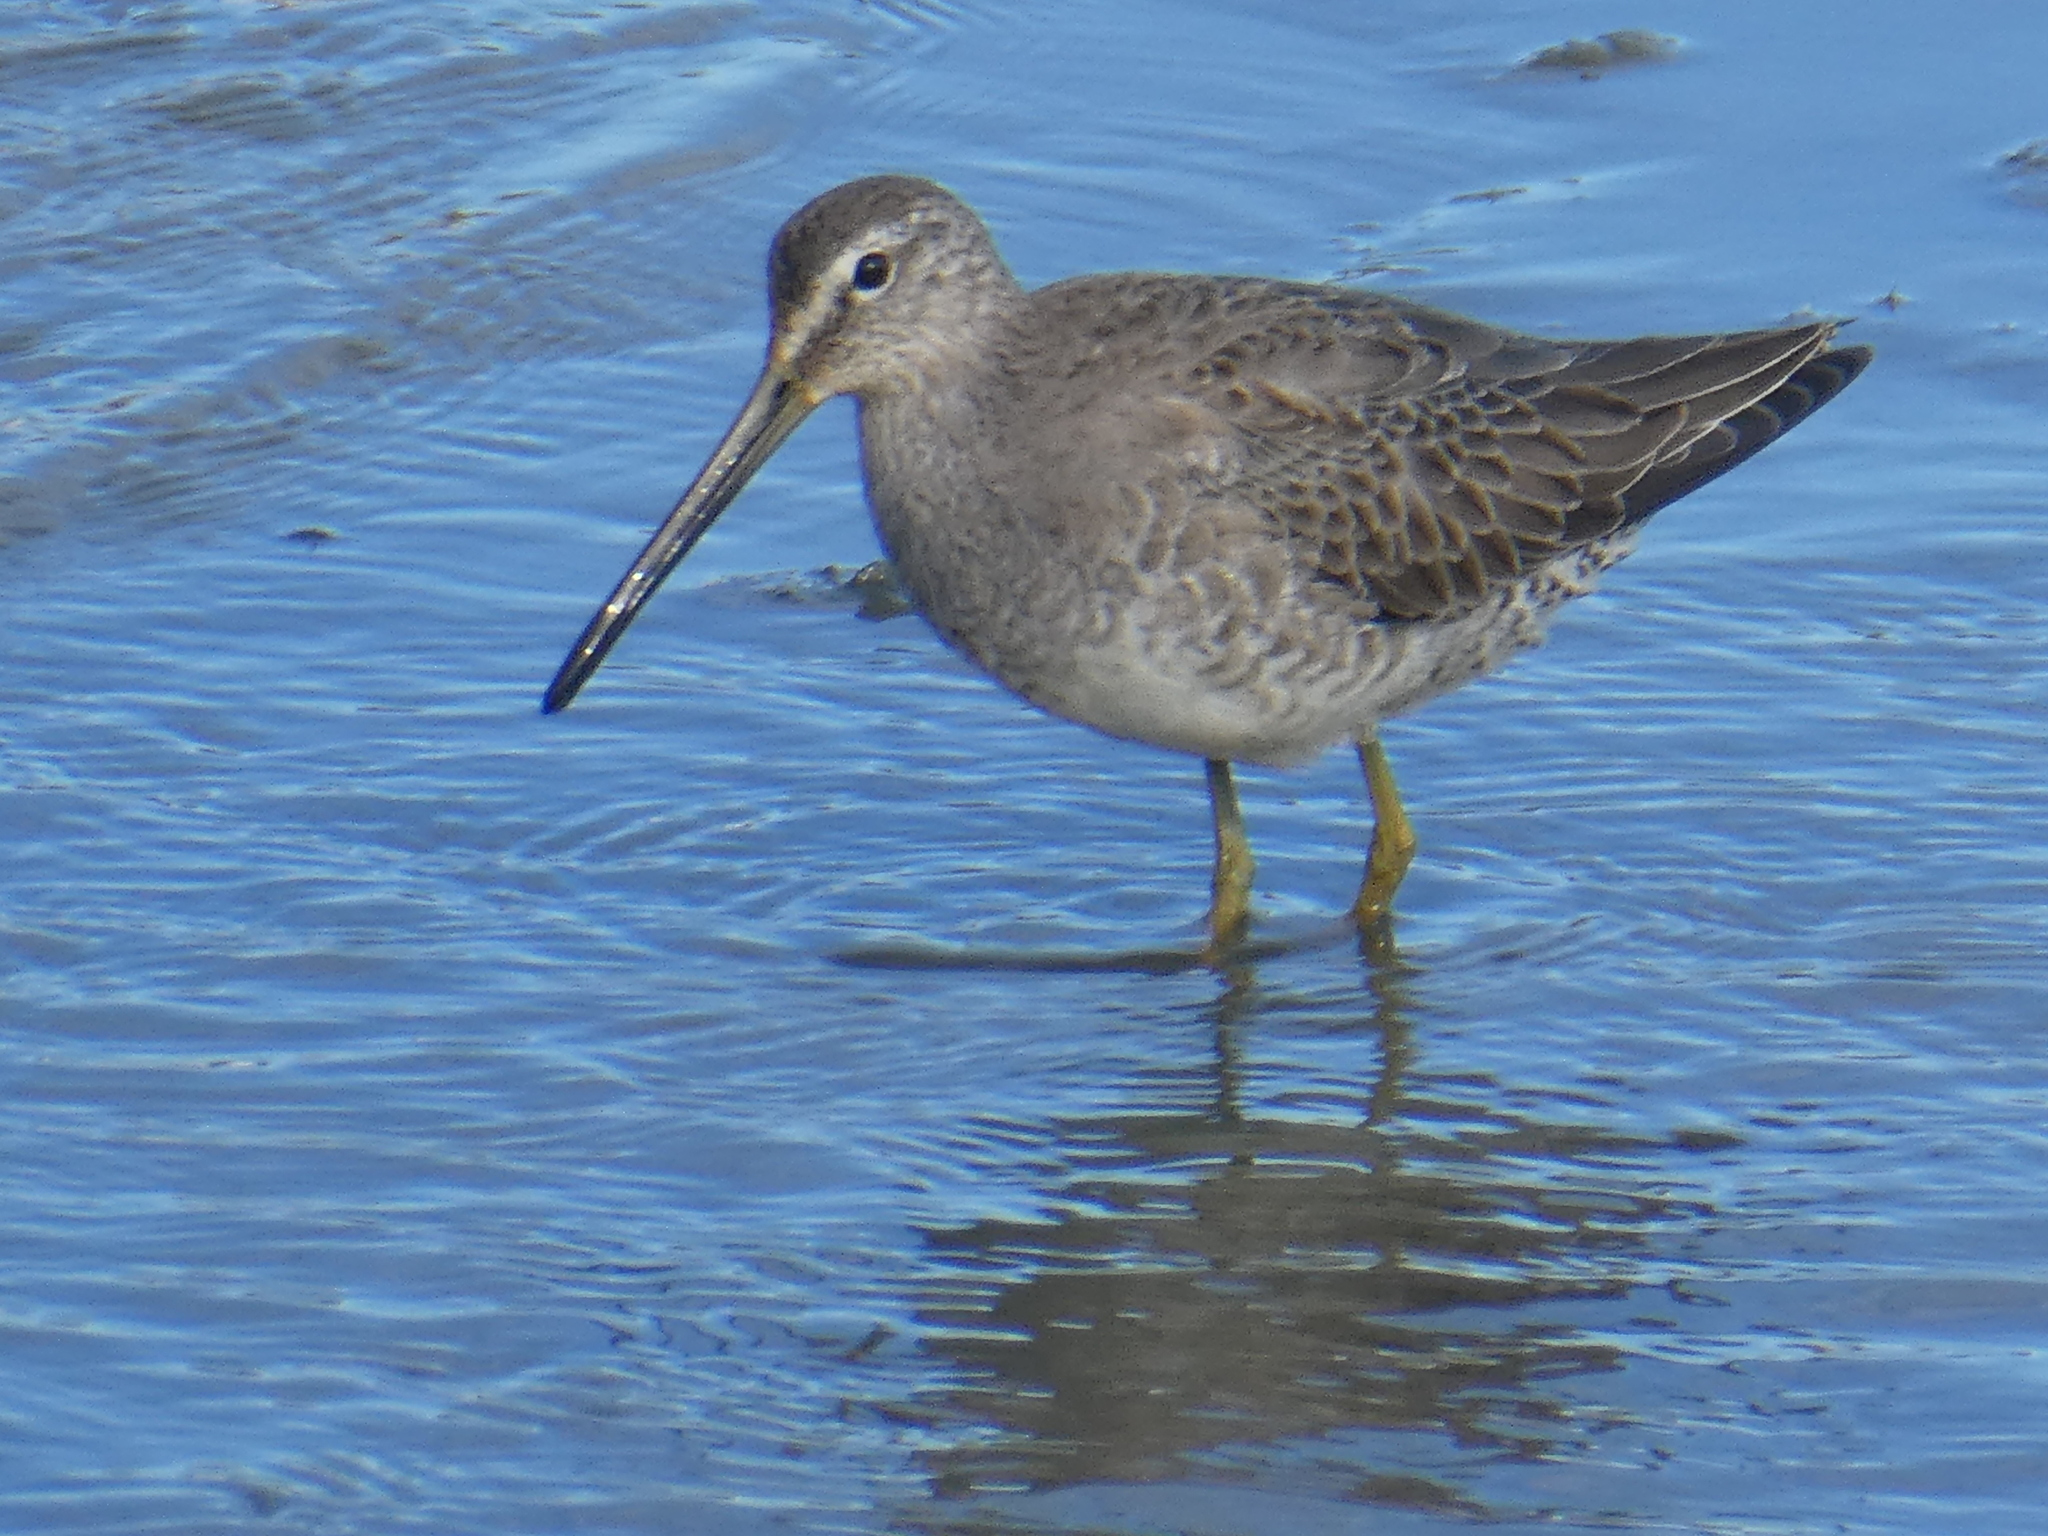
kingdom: Animalia
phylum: Chordata
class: Aves
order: Charadriiformes
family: Scolopacidae
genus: Limnodromus
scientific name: Limnodromus scolopaceus
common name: Long-billed dowitcher
